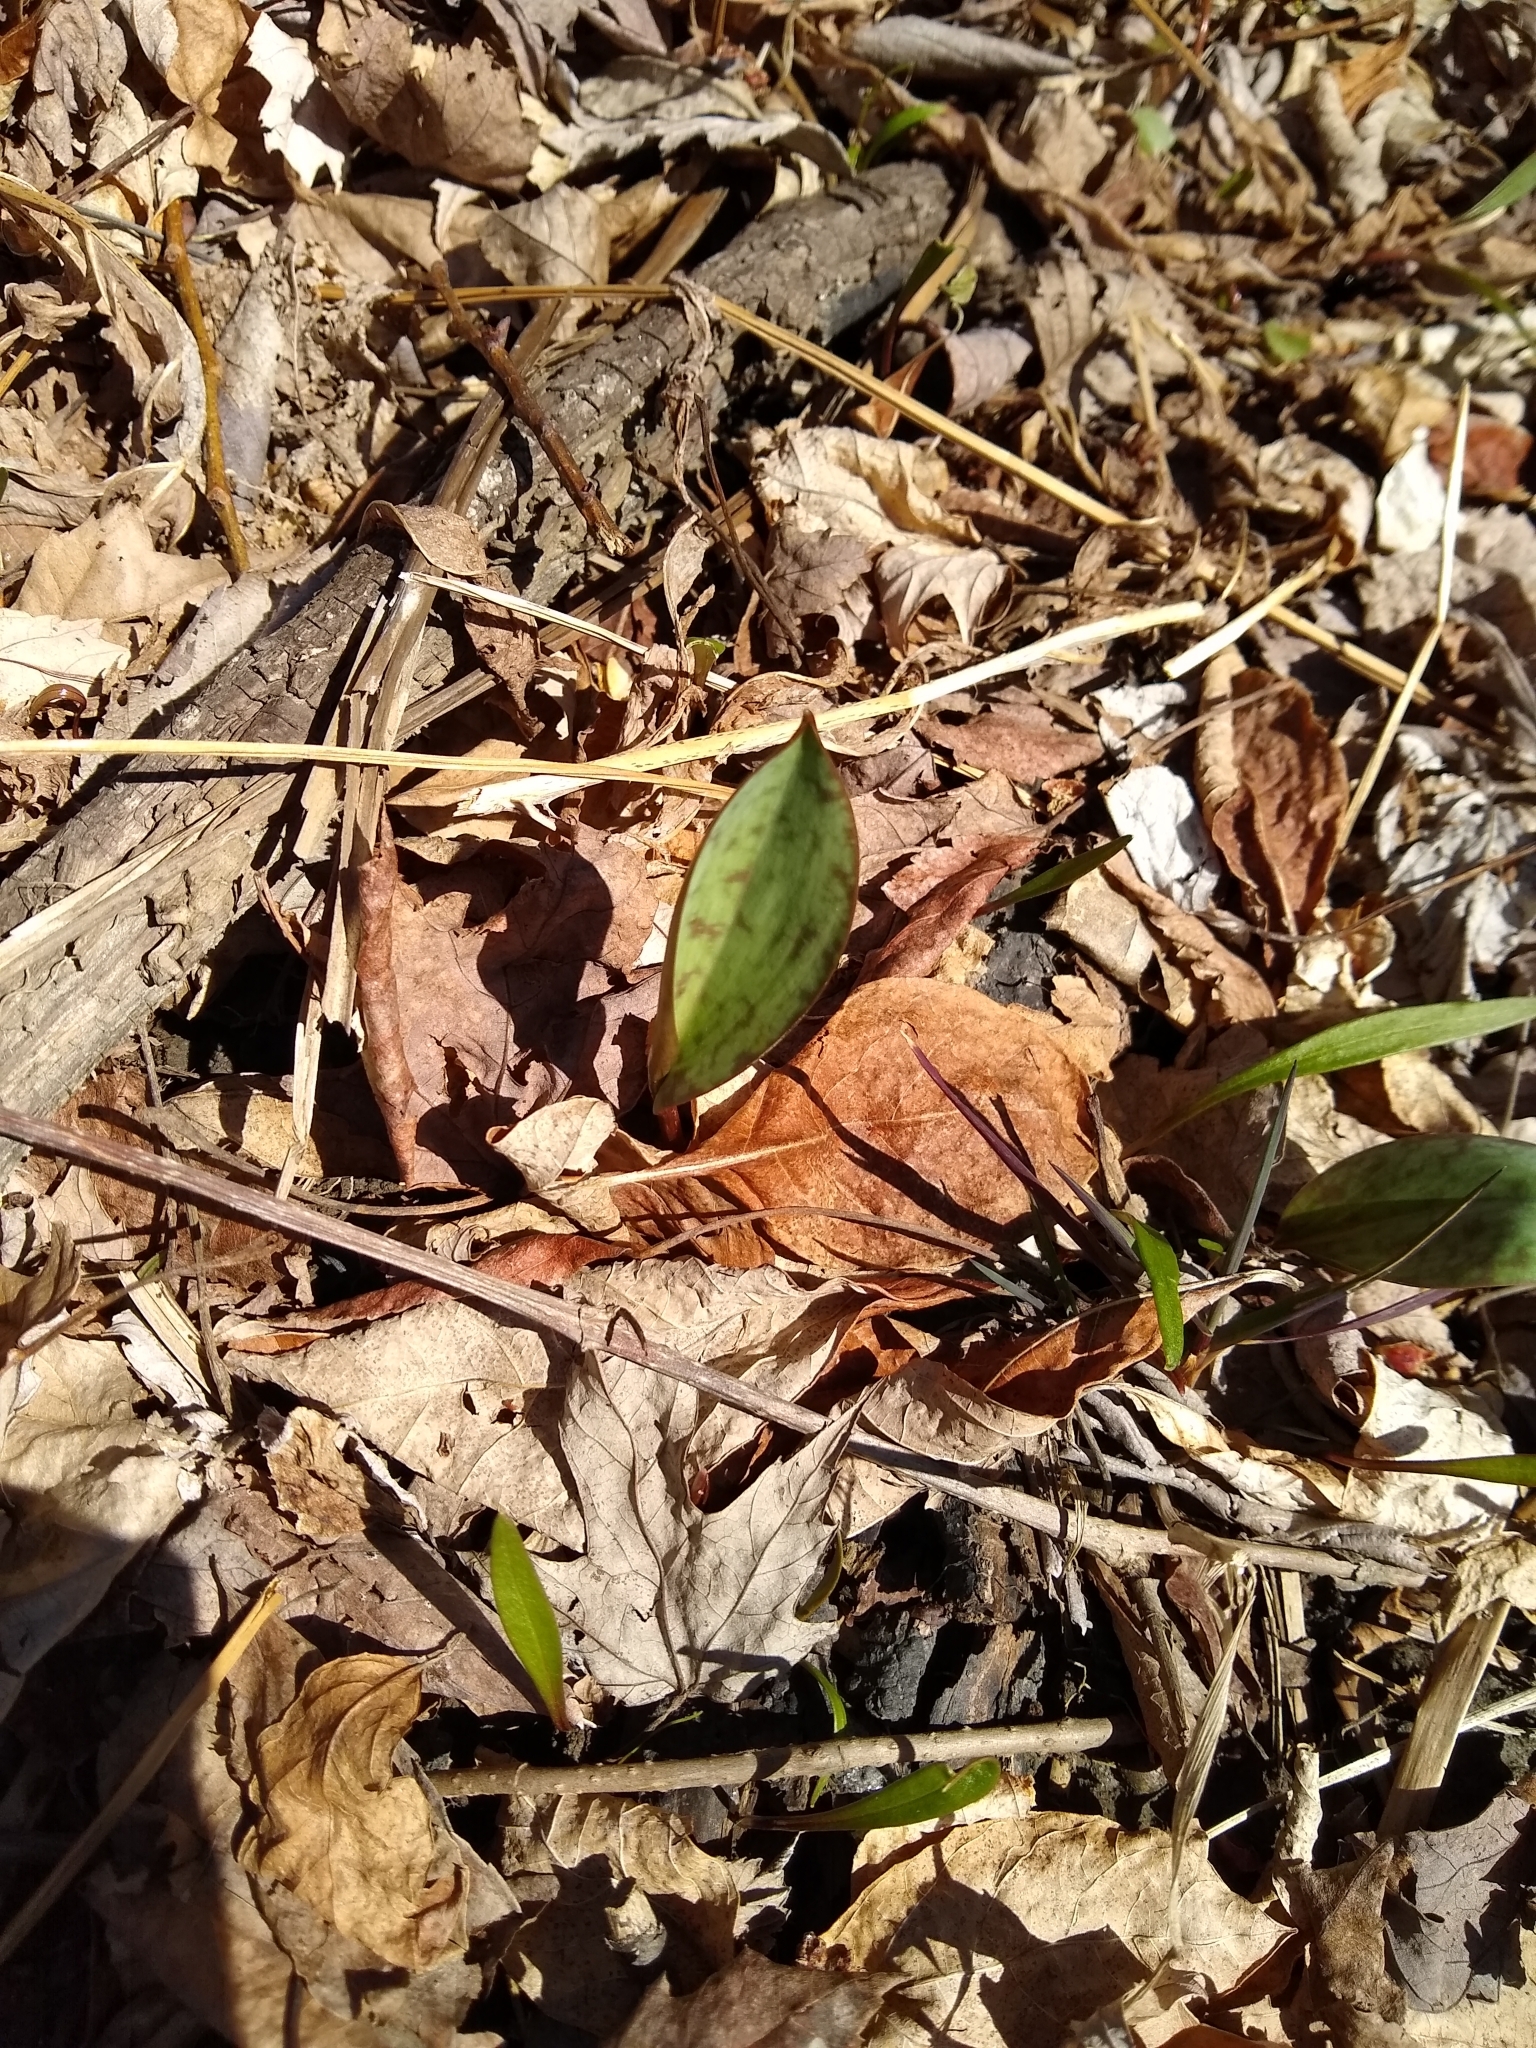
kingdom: Plantae
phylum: Tracheophyta
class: Liliopsida
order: Liliales
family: Liliaceae
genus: Erythronium
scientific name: Erythronium americanum
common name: Yellow adder's-tongue
